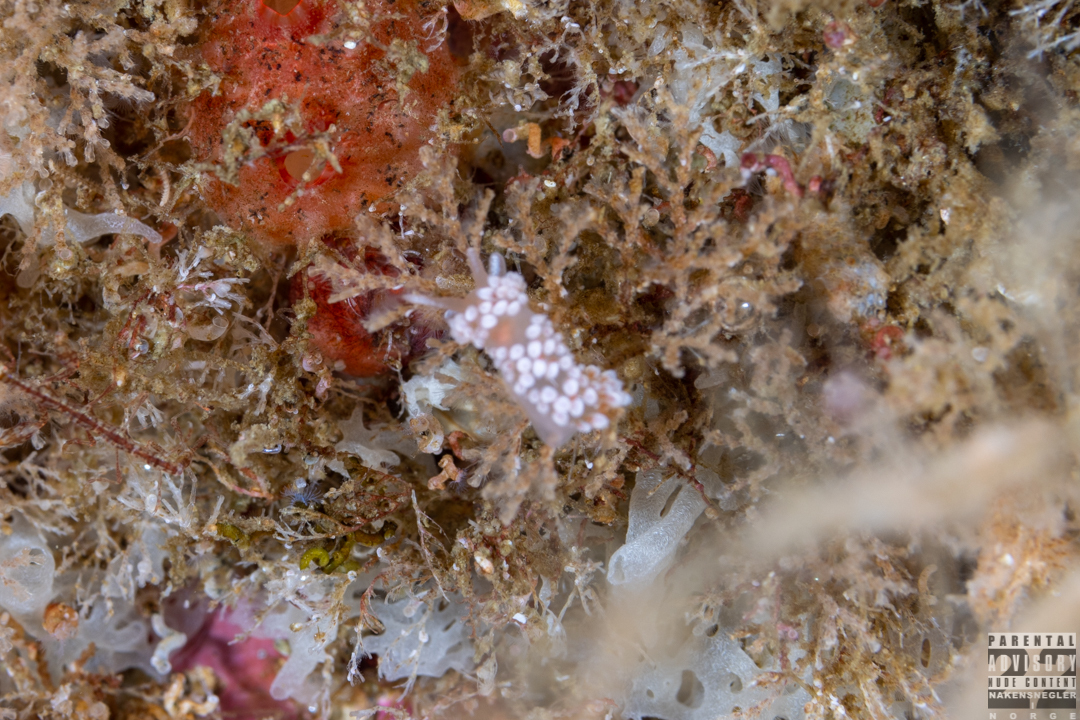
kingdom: Animalia
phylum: Mollusca
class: Gastropoda
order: Nudibranchia
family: Coryphellidae
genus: Coryphella
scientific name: Coryphella verrucosa
